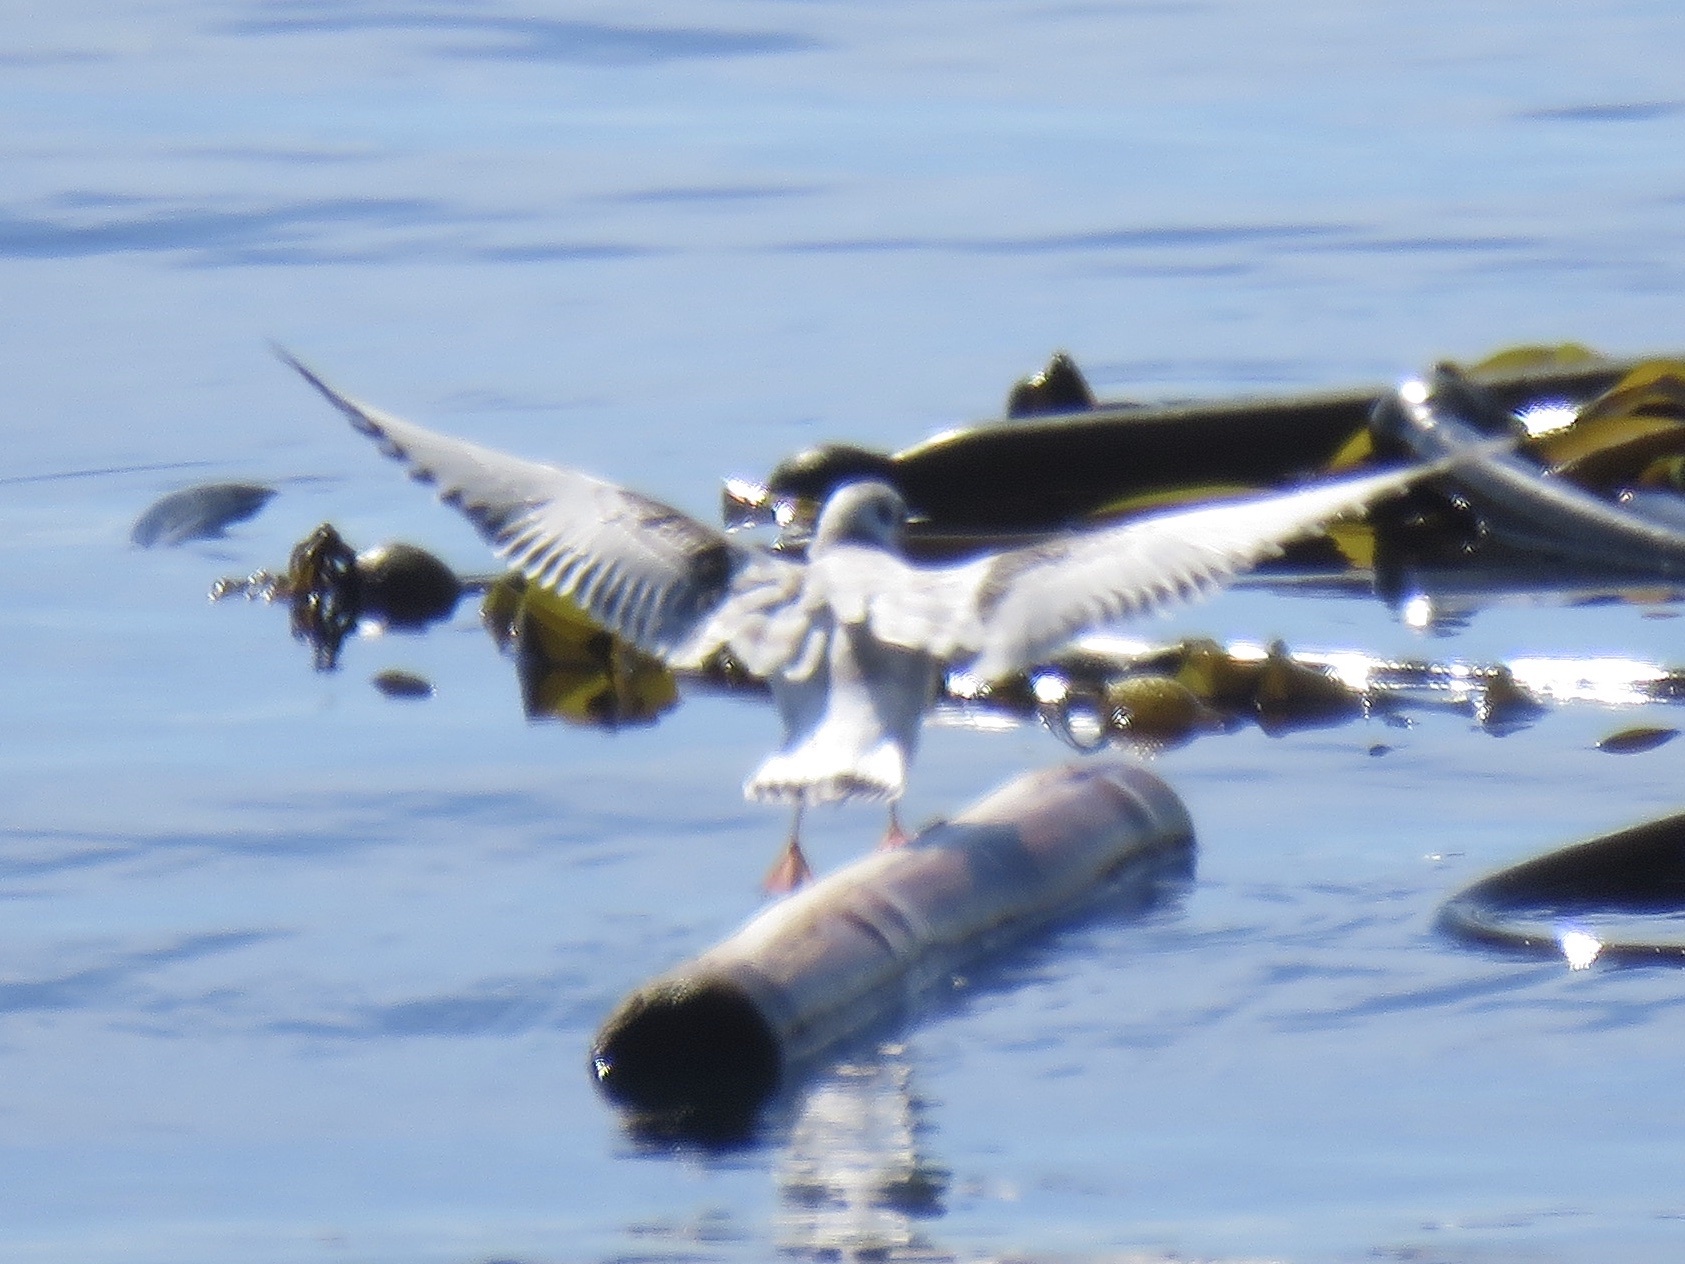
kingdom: Animalia
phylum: Chordata
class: Aves
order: Charadriiformes
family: Laridae
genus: Chroicocephalus
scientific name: Chroicocephalus philadelphia
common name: Bonaparte's gull
